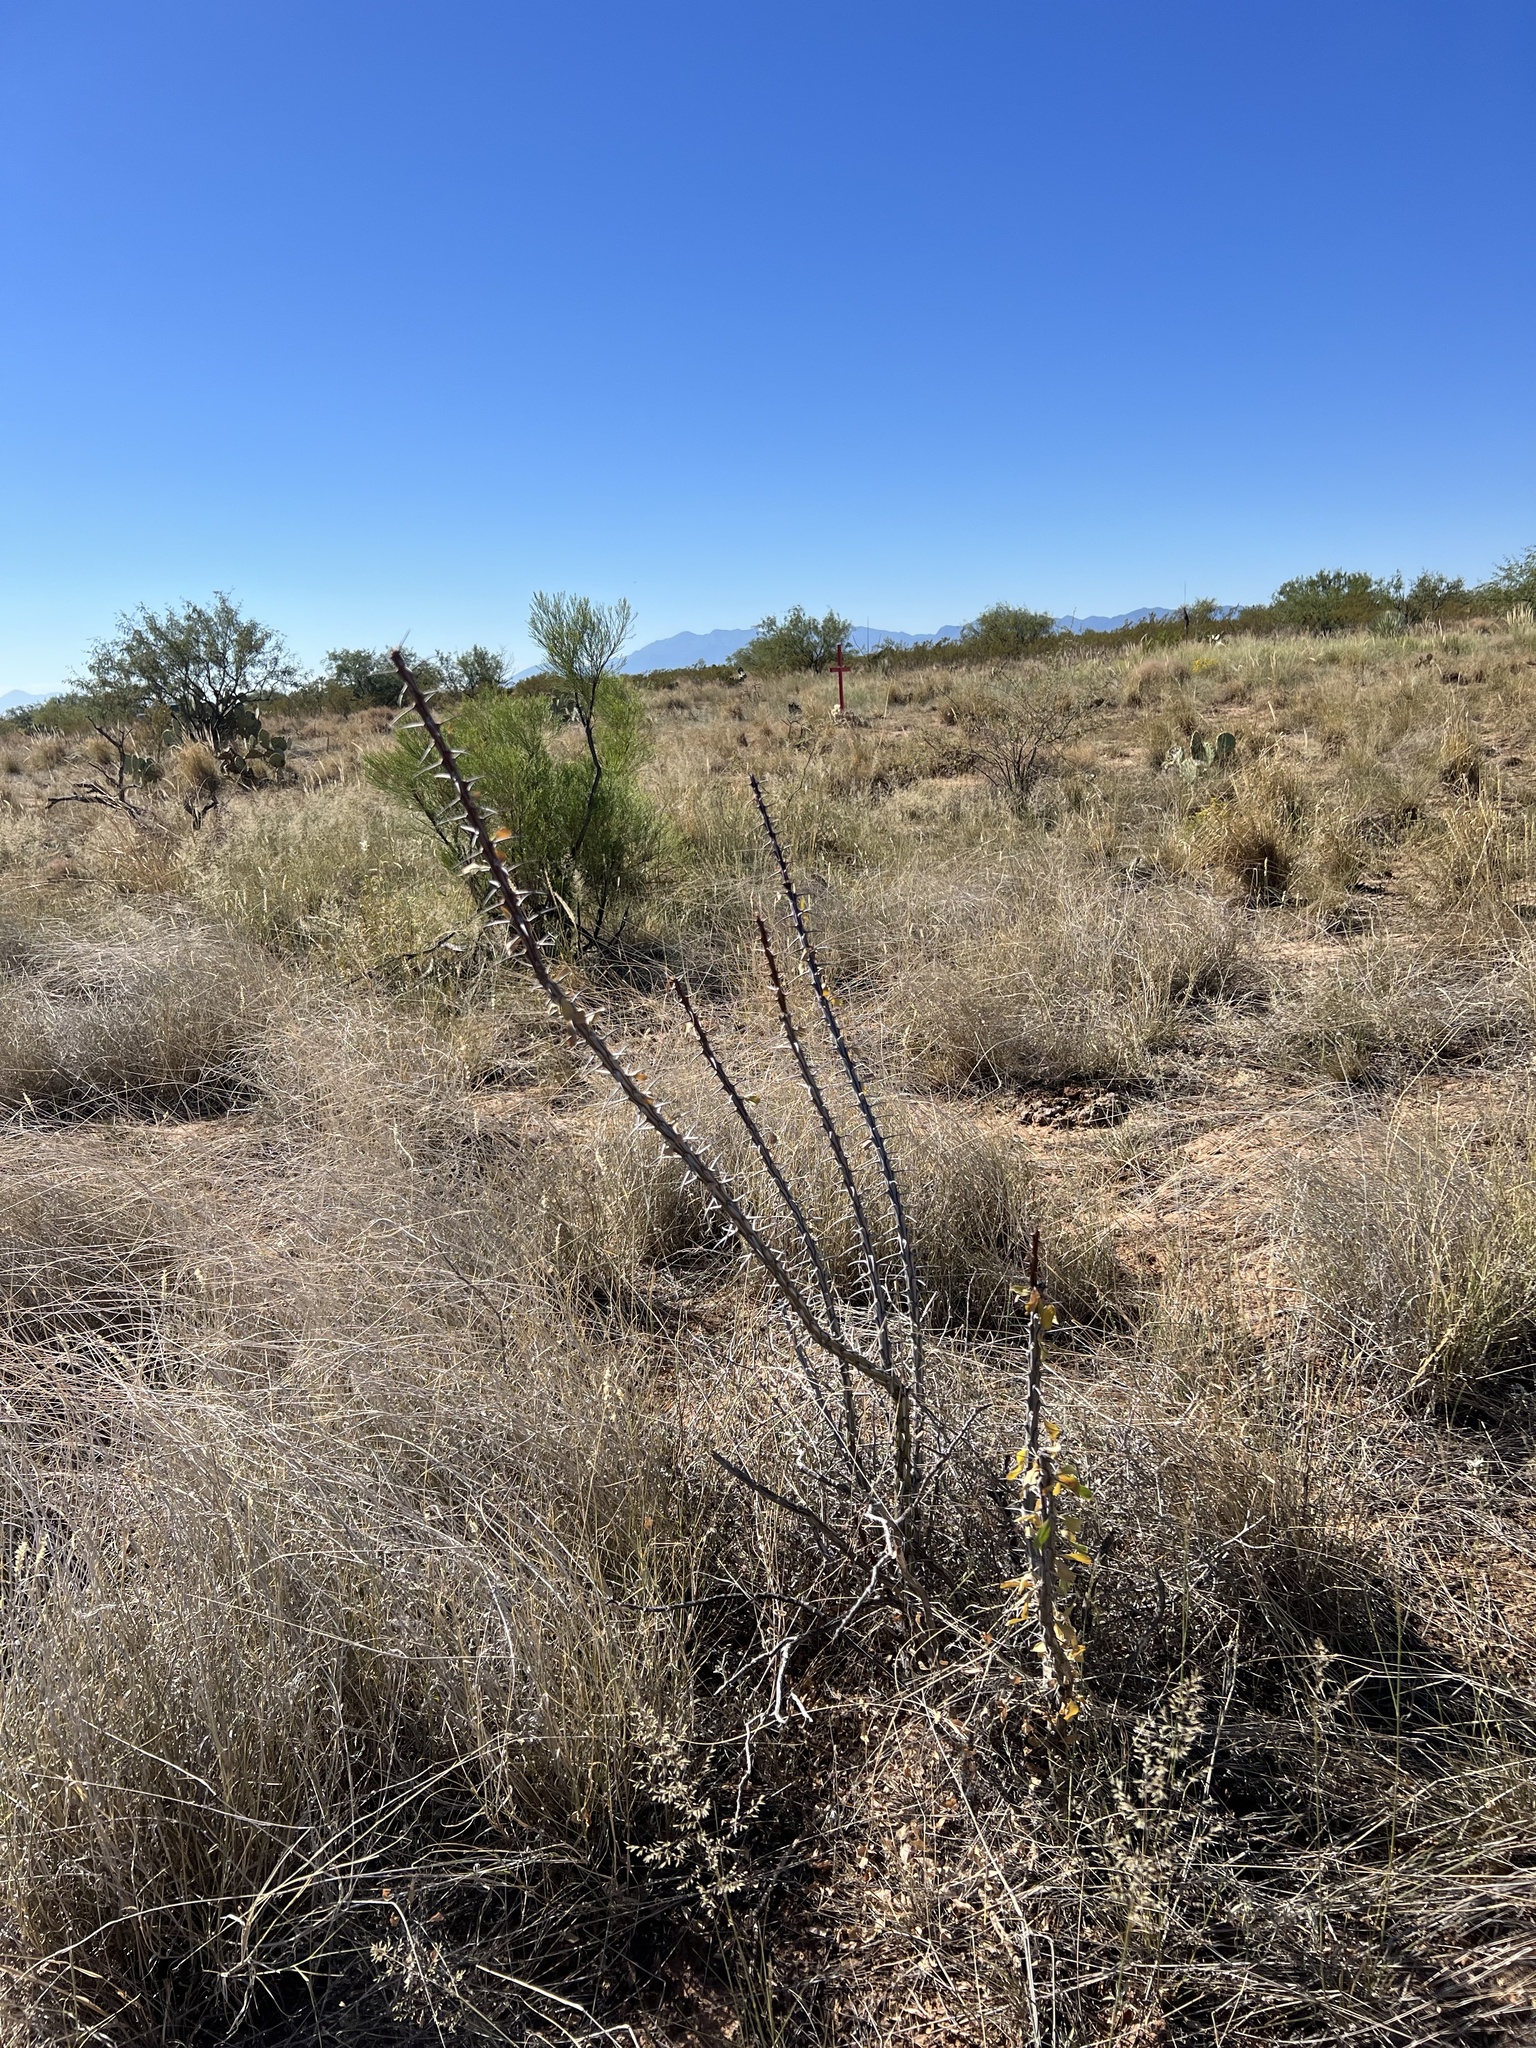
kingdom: Plantae
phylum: Tracheophyta
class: Magnoliopsida
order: Ericales
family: Fouquieriaceae
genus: Fouquieria
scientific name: Fouquieria splendens
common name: Vine-cactus
